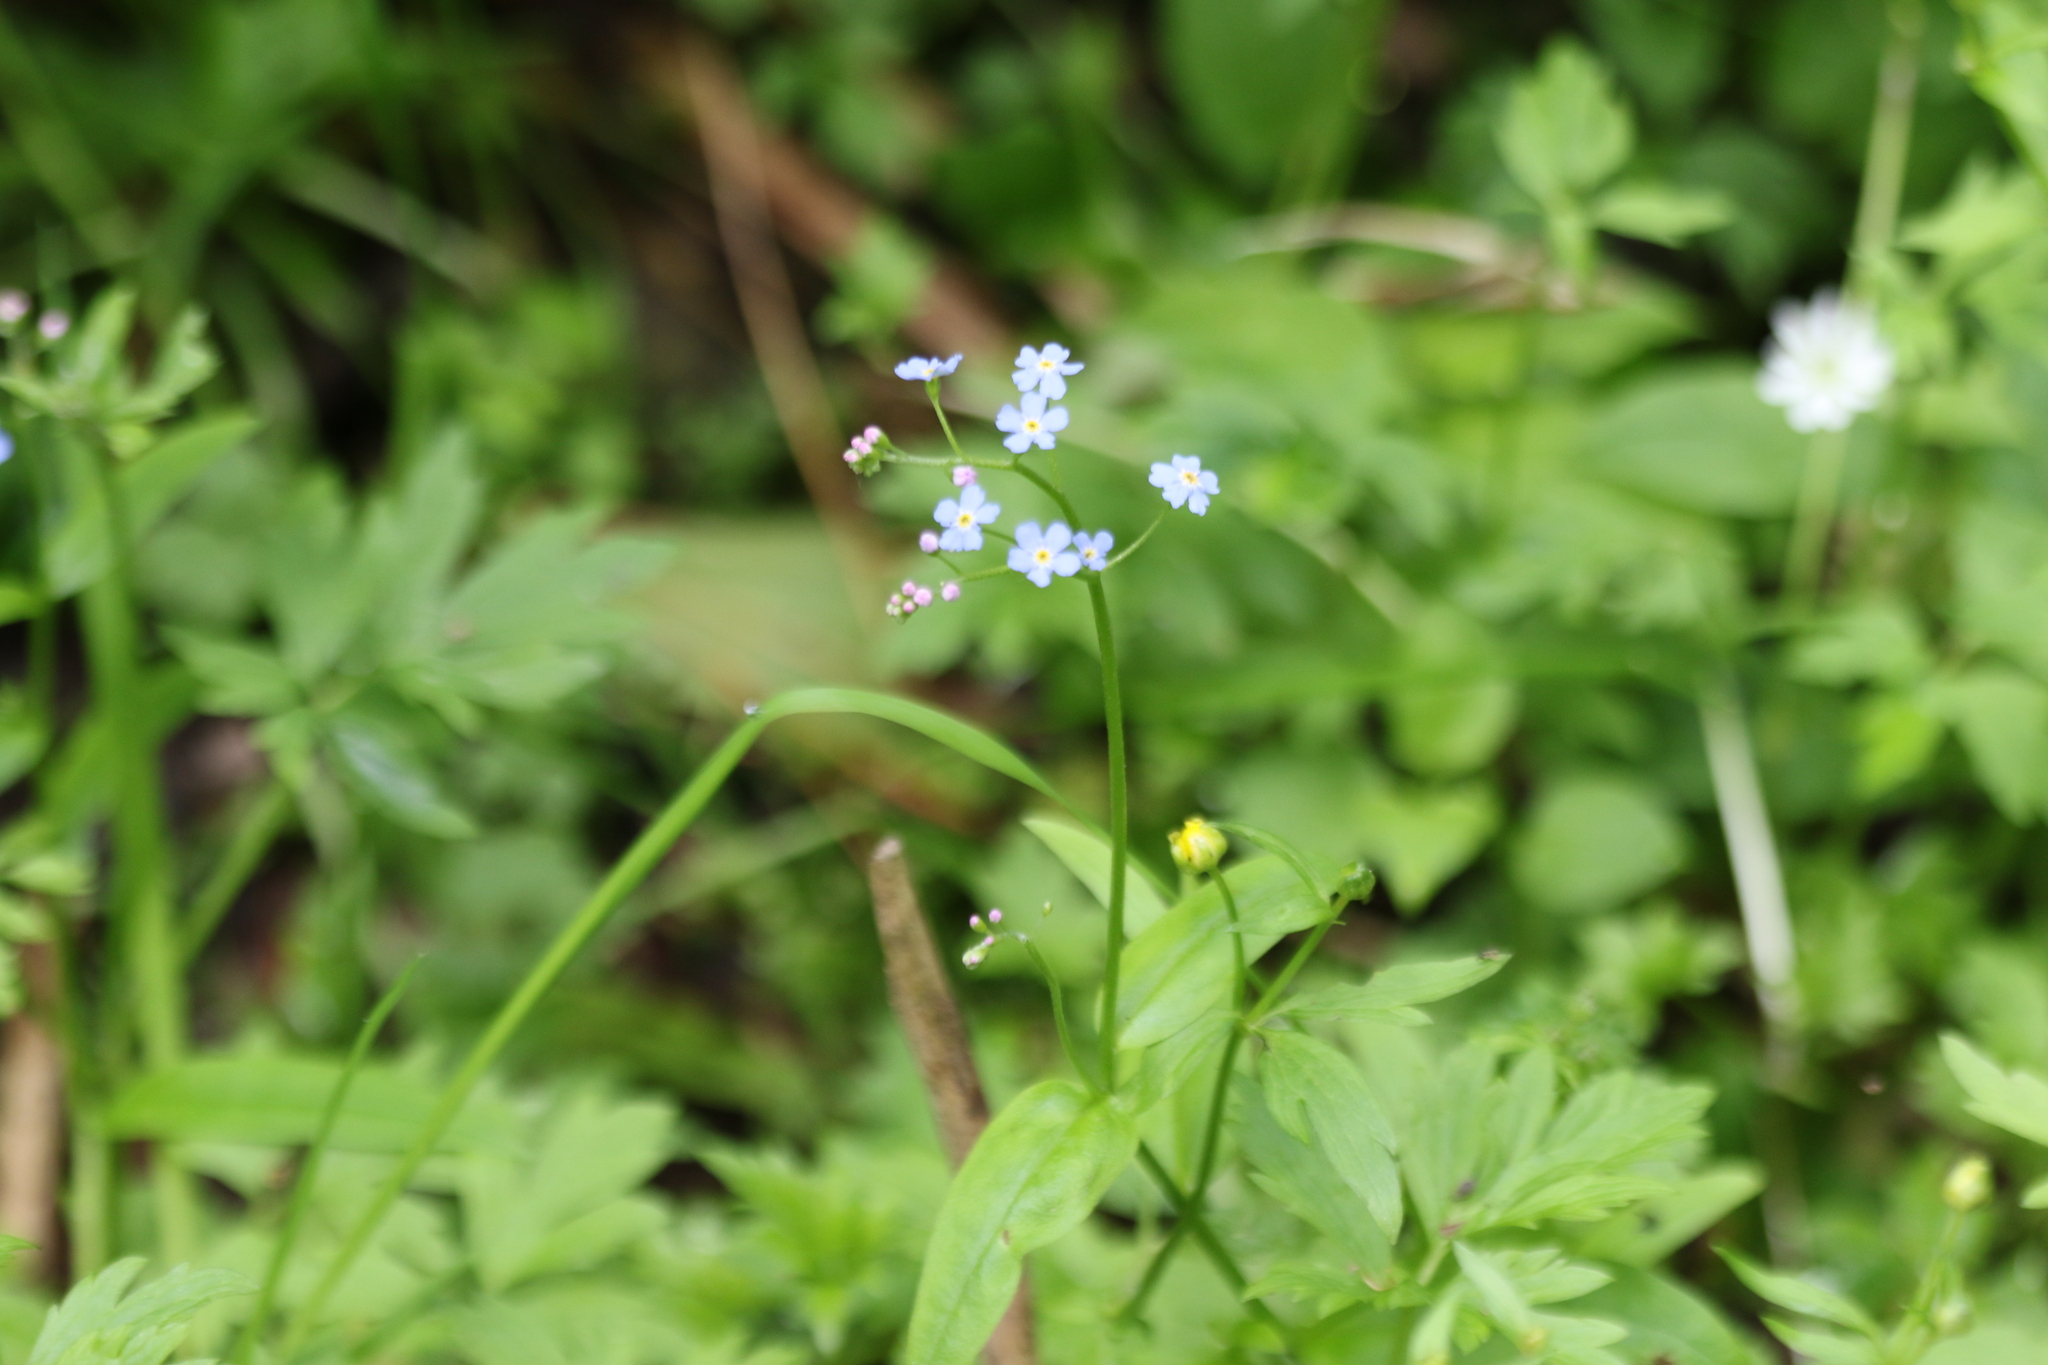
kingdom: Plantae
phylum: Tracheophyta
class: Magnoliopsida
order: Boraginales
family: Boraginaceae
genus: Myosotis
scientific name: Myosotis scorpioides
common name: Water forget-me-not
